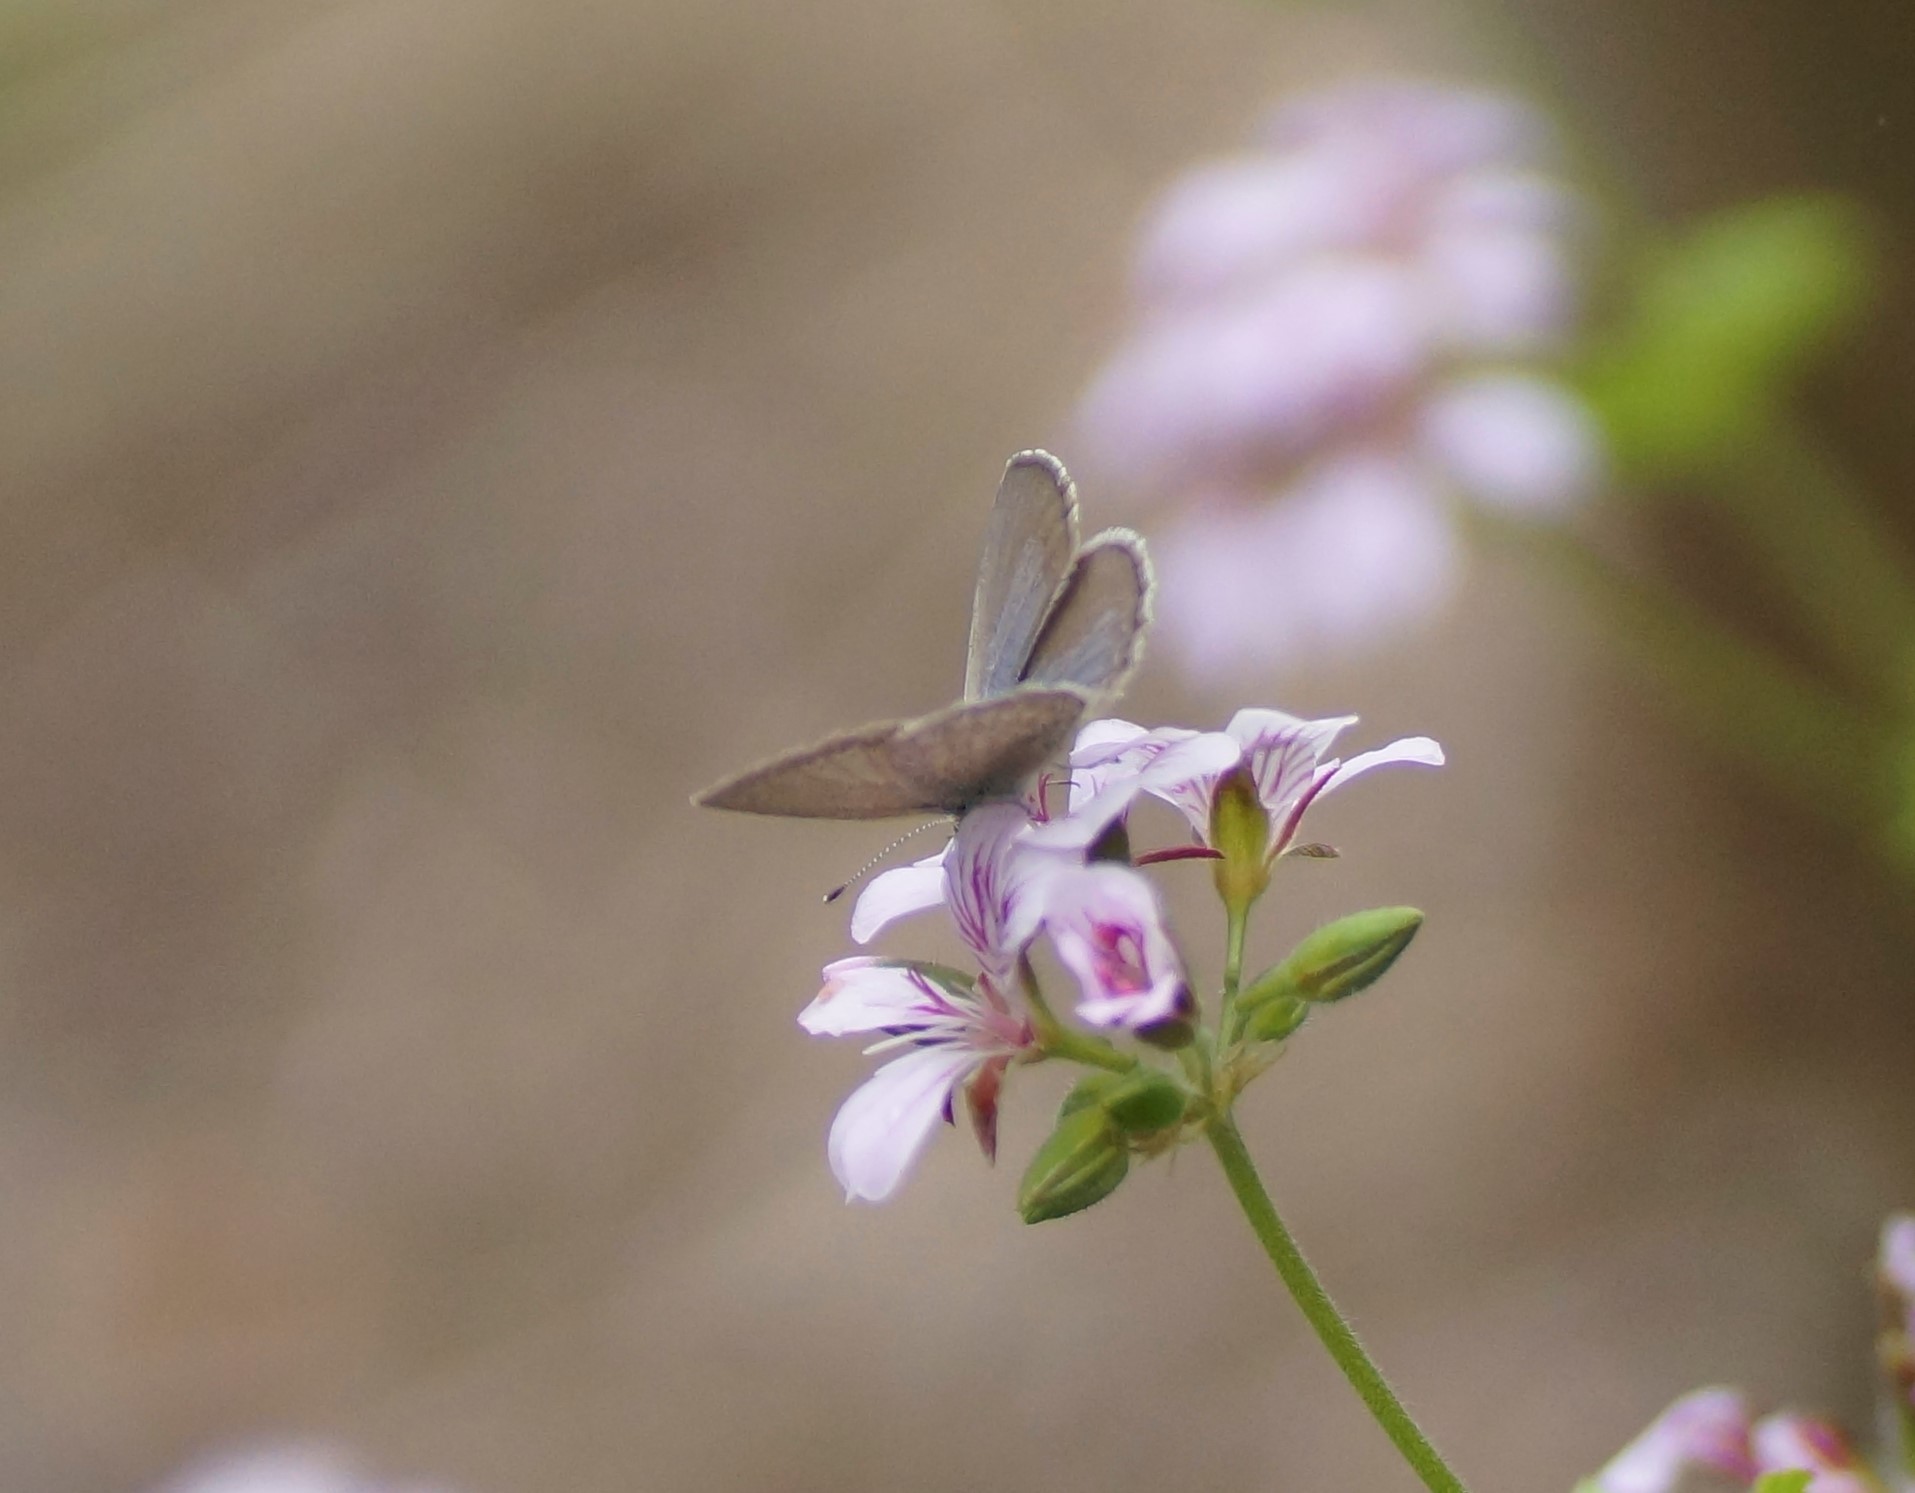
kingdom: Animalia
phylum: Arthropoda
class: Insecta
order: Lepidoptera
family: Lycaenidae
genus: Zizina
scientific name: Zizina labradus
